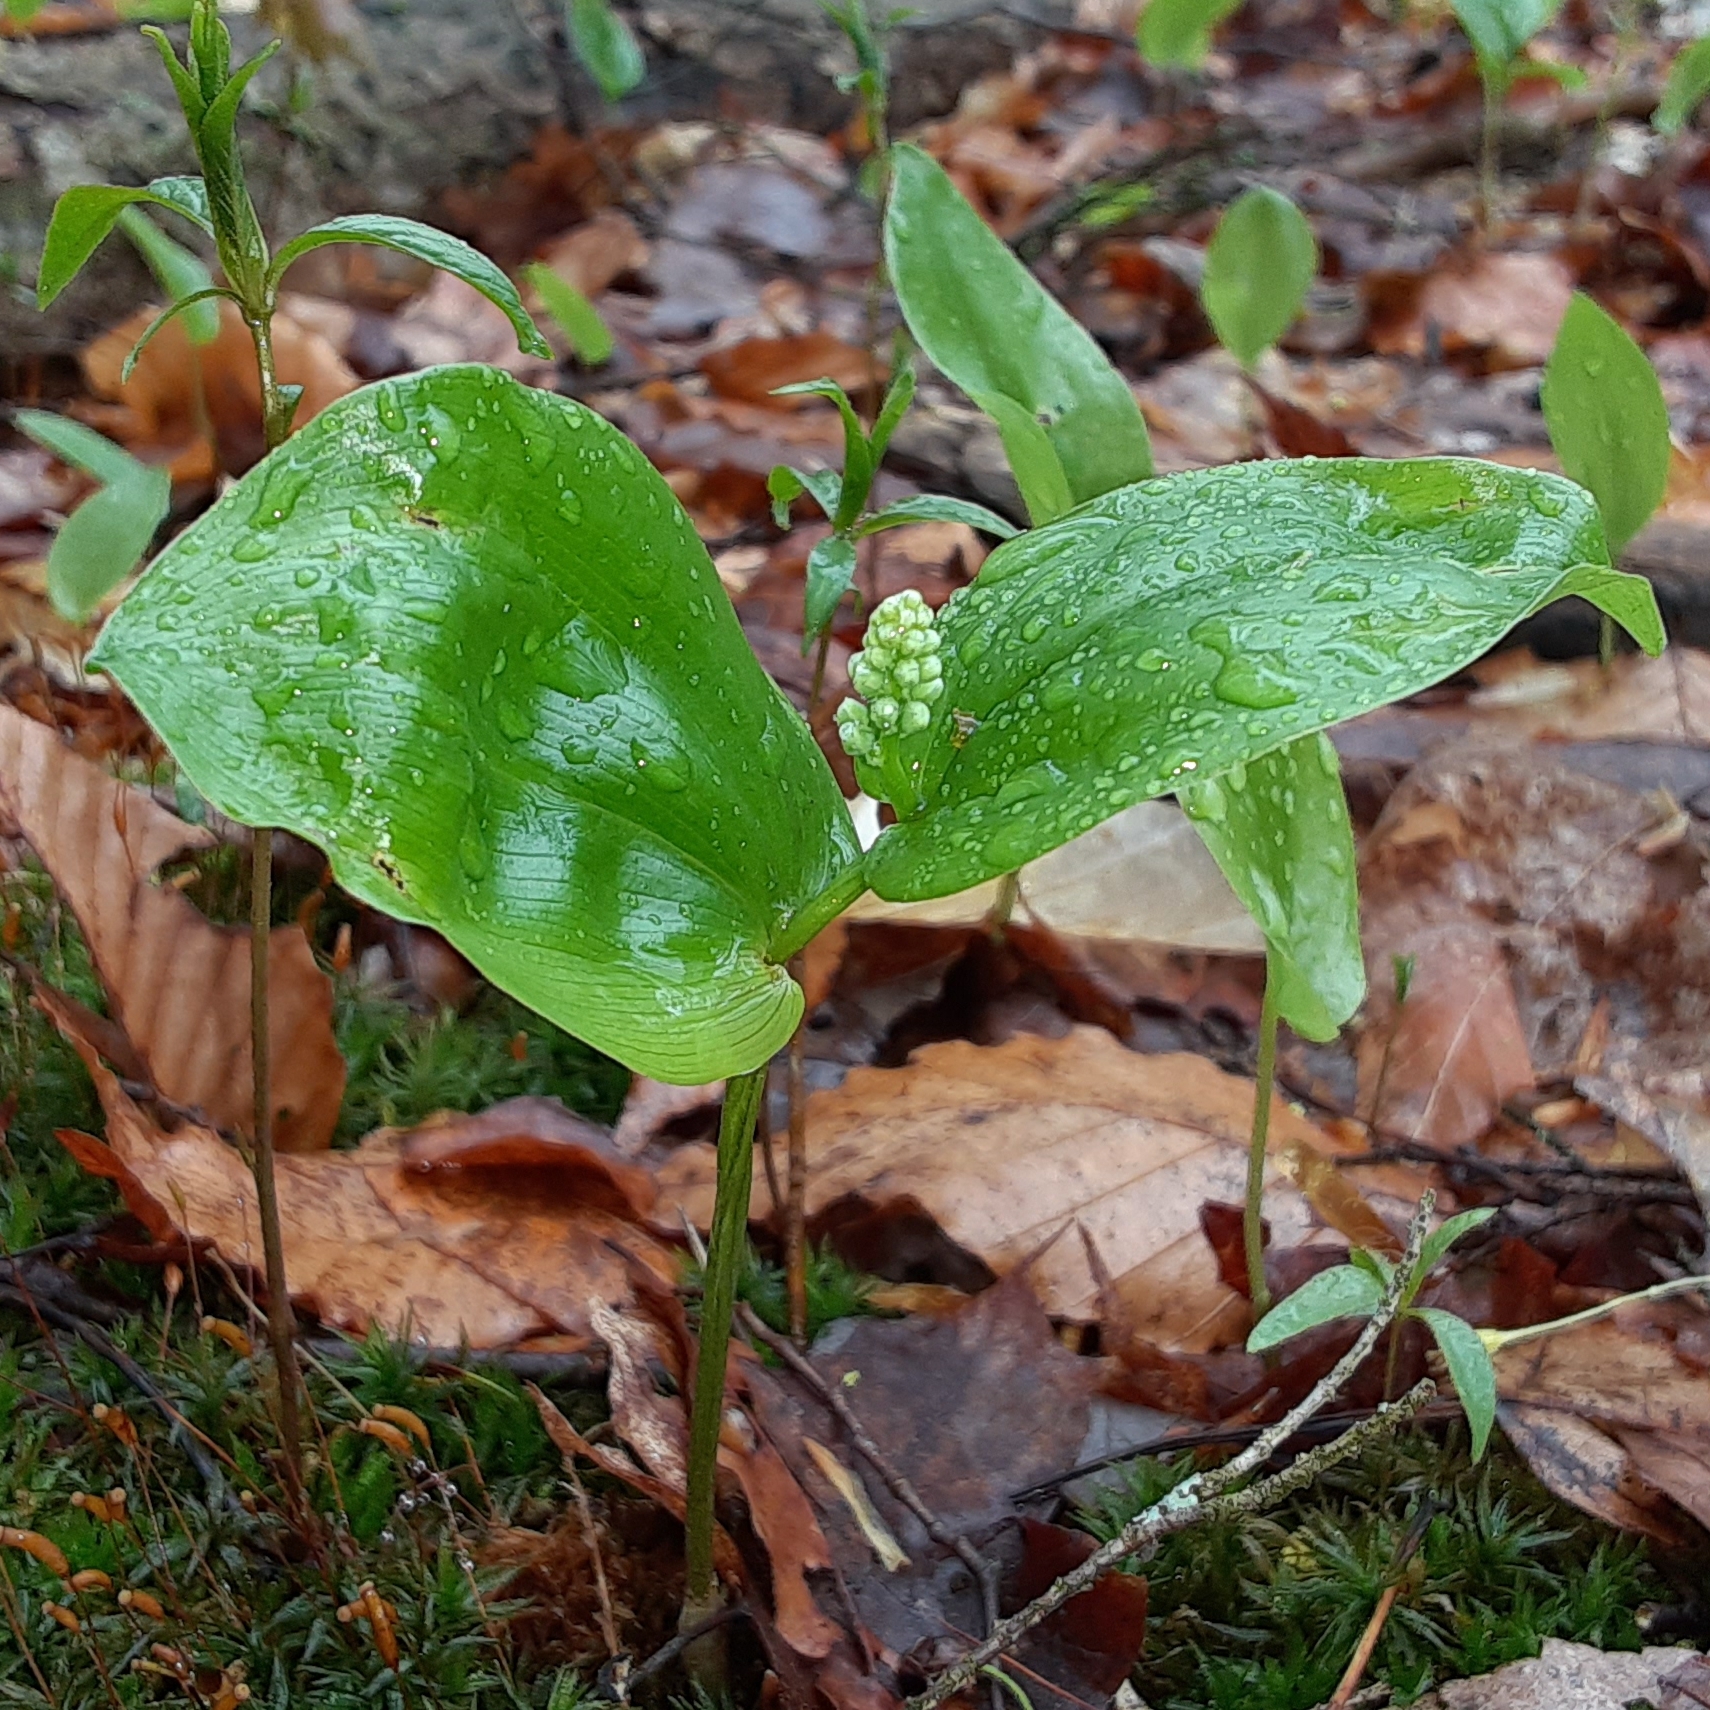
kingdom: Plantae
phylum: Tracheophyta
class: Liliopsida
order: Asparagales
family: Asparagaceae
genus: Maianthemum
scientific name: Maianthemum canadense
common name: False lily-of-the-valley
